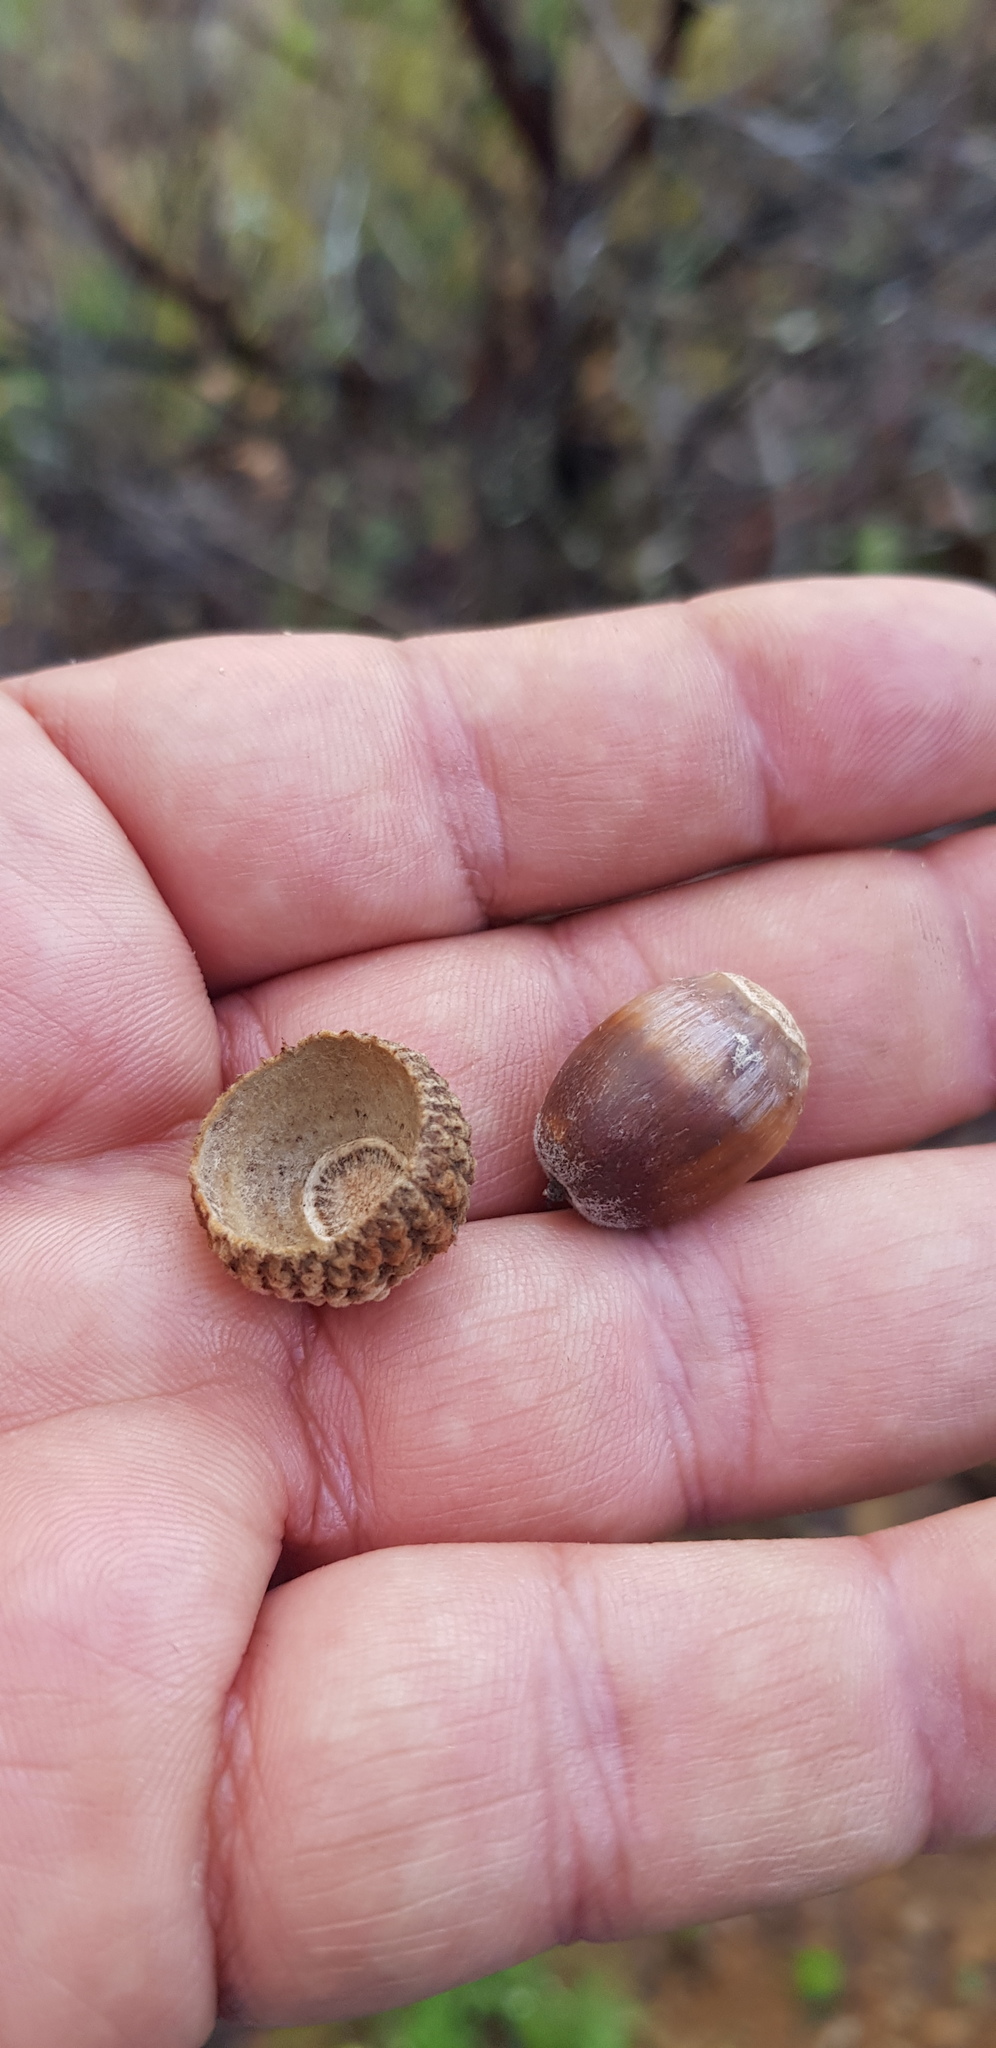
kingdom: Plantae
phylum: Tracheophyta
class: Magnoliopsida
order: Fagales
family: Fagaceae
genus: Quercus
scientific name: Quercus glaucoides
